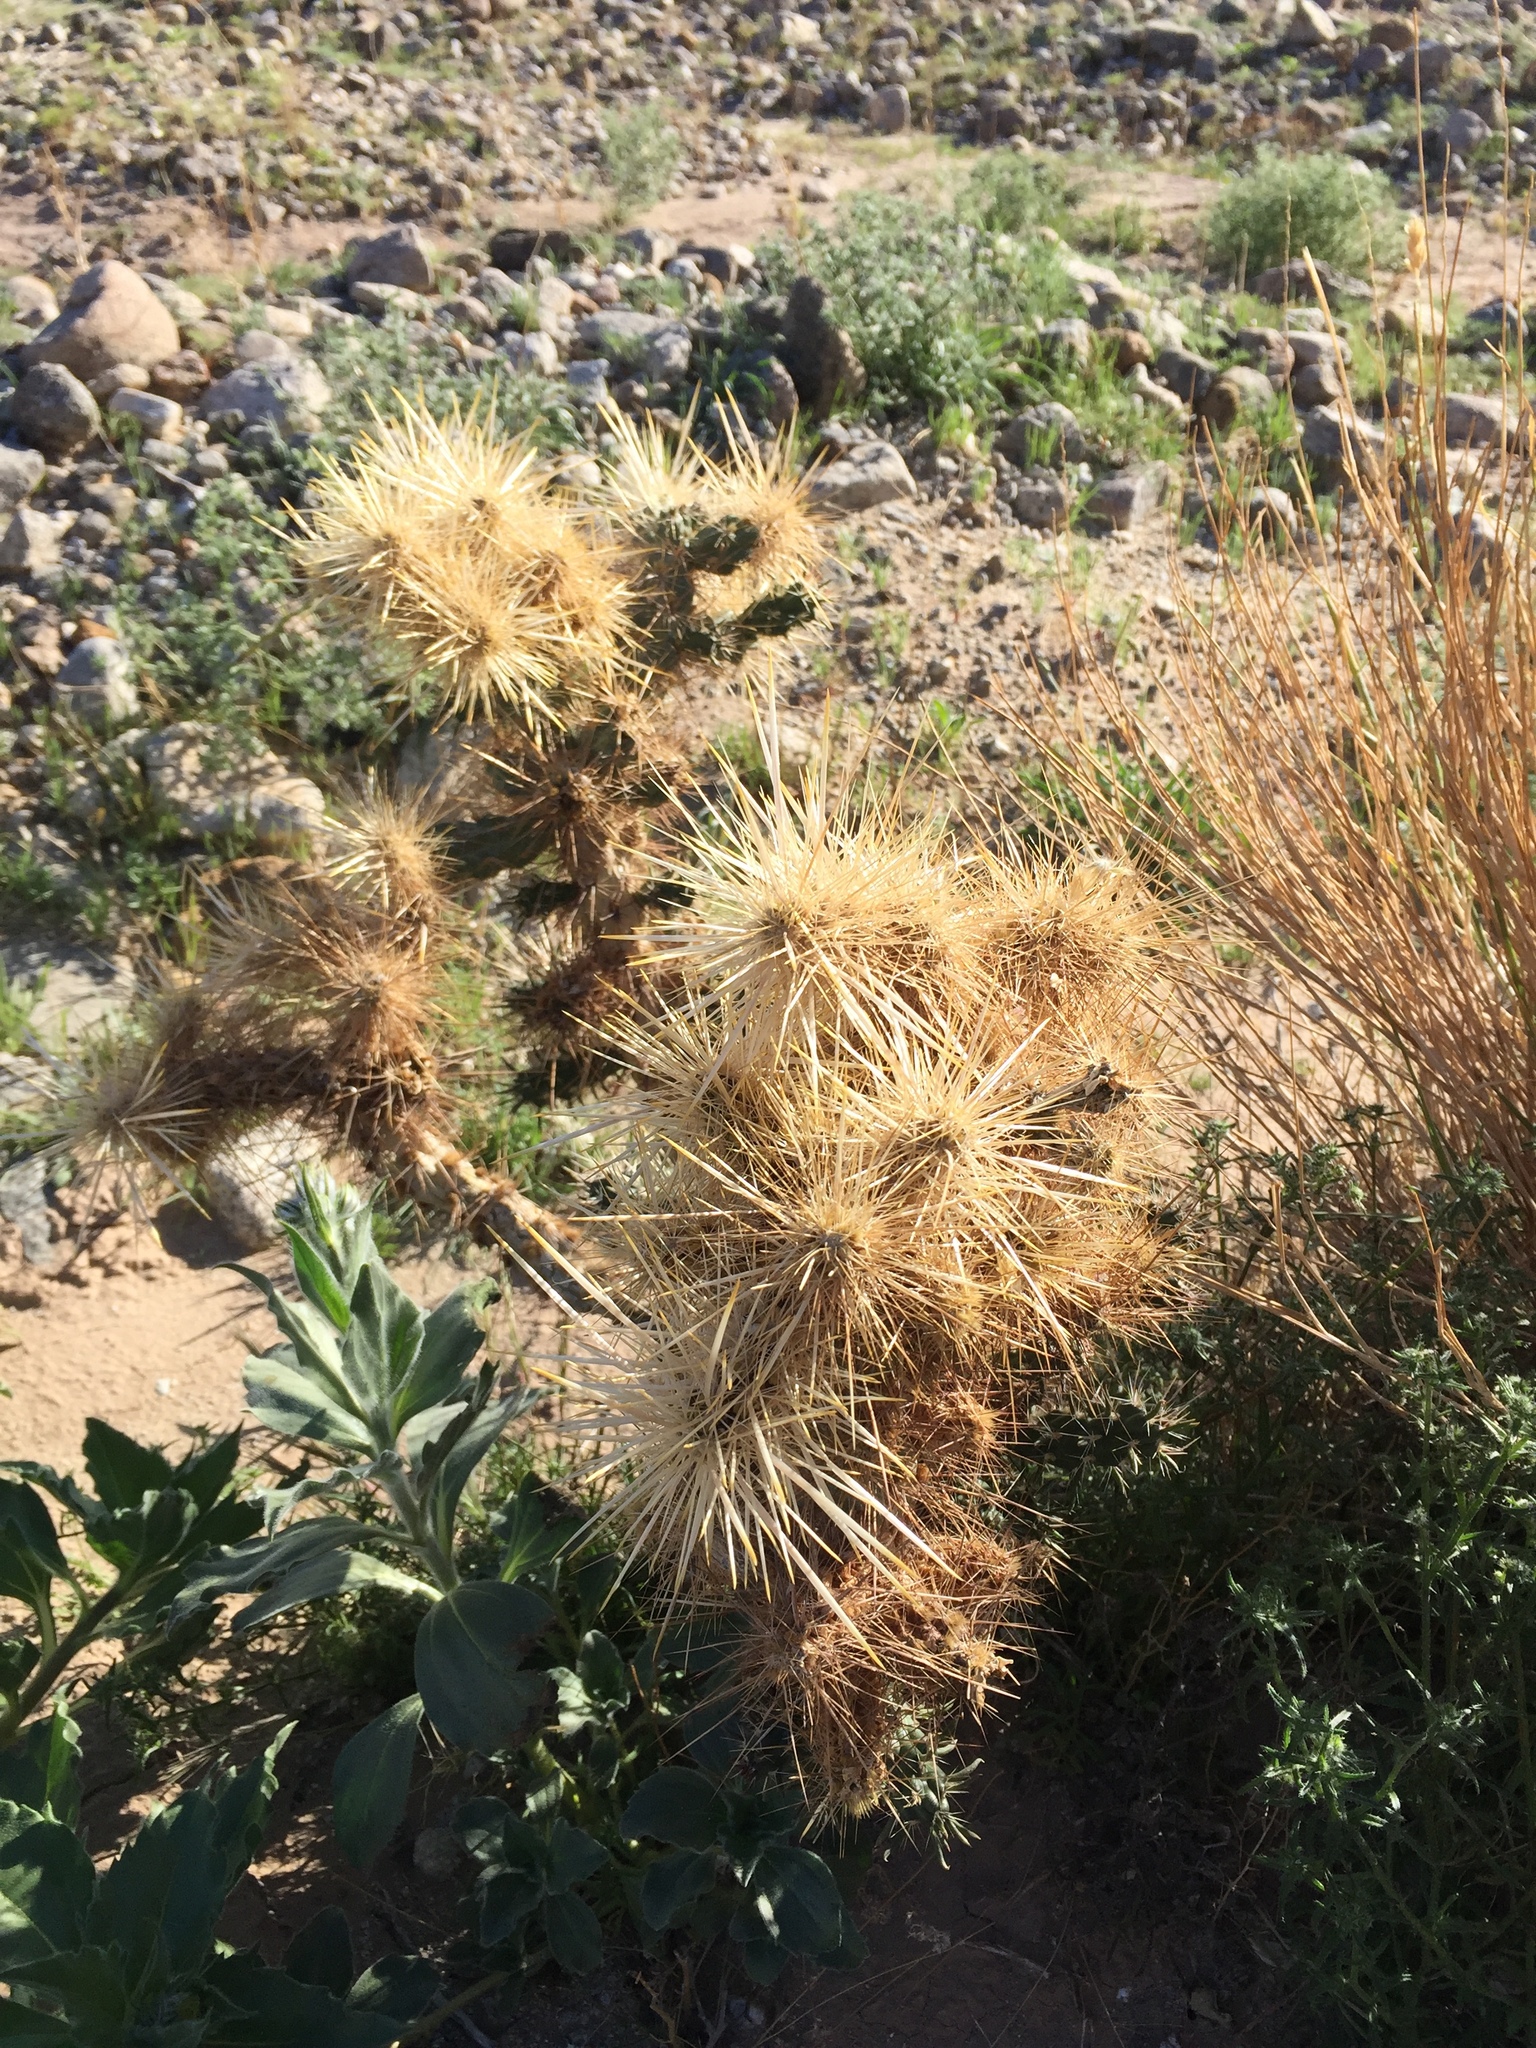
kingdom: Plantae
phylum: Tracheophyta
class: Magnoliopsida
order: Caryophyllales
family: Cactaceae
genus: Cylindropuntia
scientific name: Cylindropuntia echinocarpa
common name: Ground cholla
